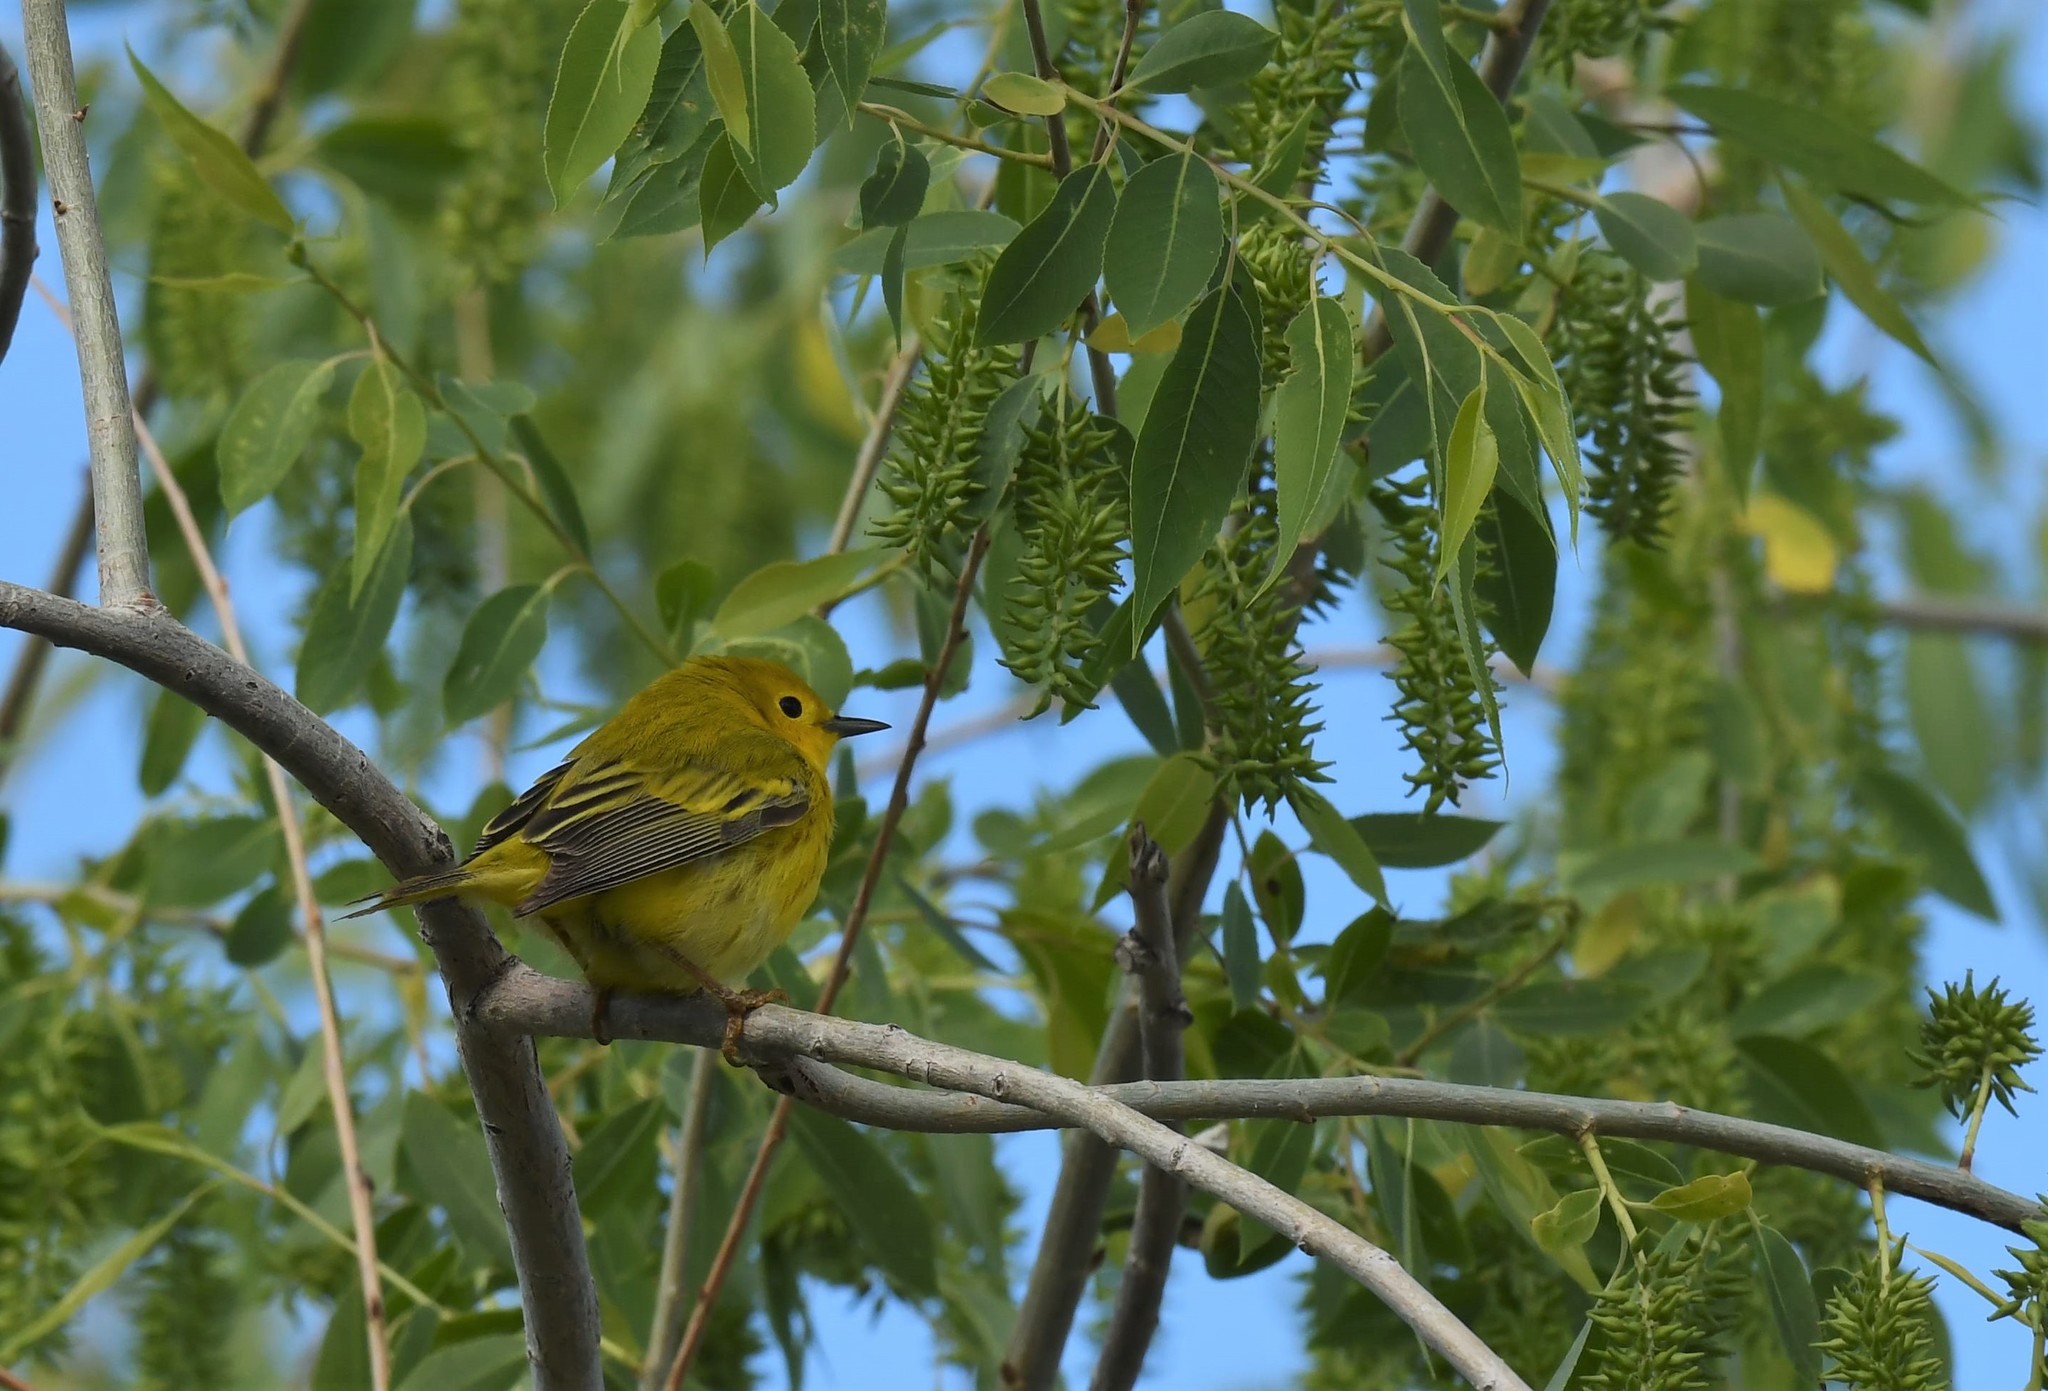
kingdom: Animalia
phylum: Chordata
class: Aves
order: Passeriformes
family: Parulidae
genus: Setophaga
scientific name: Setophaga petechia
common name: Yellow warbler
